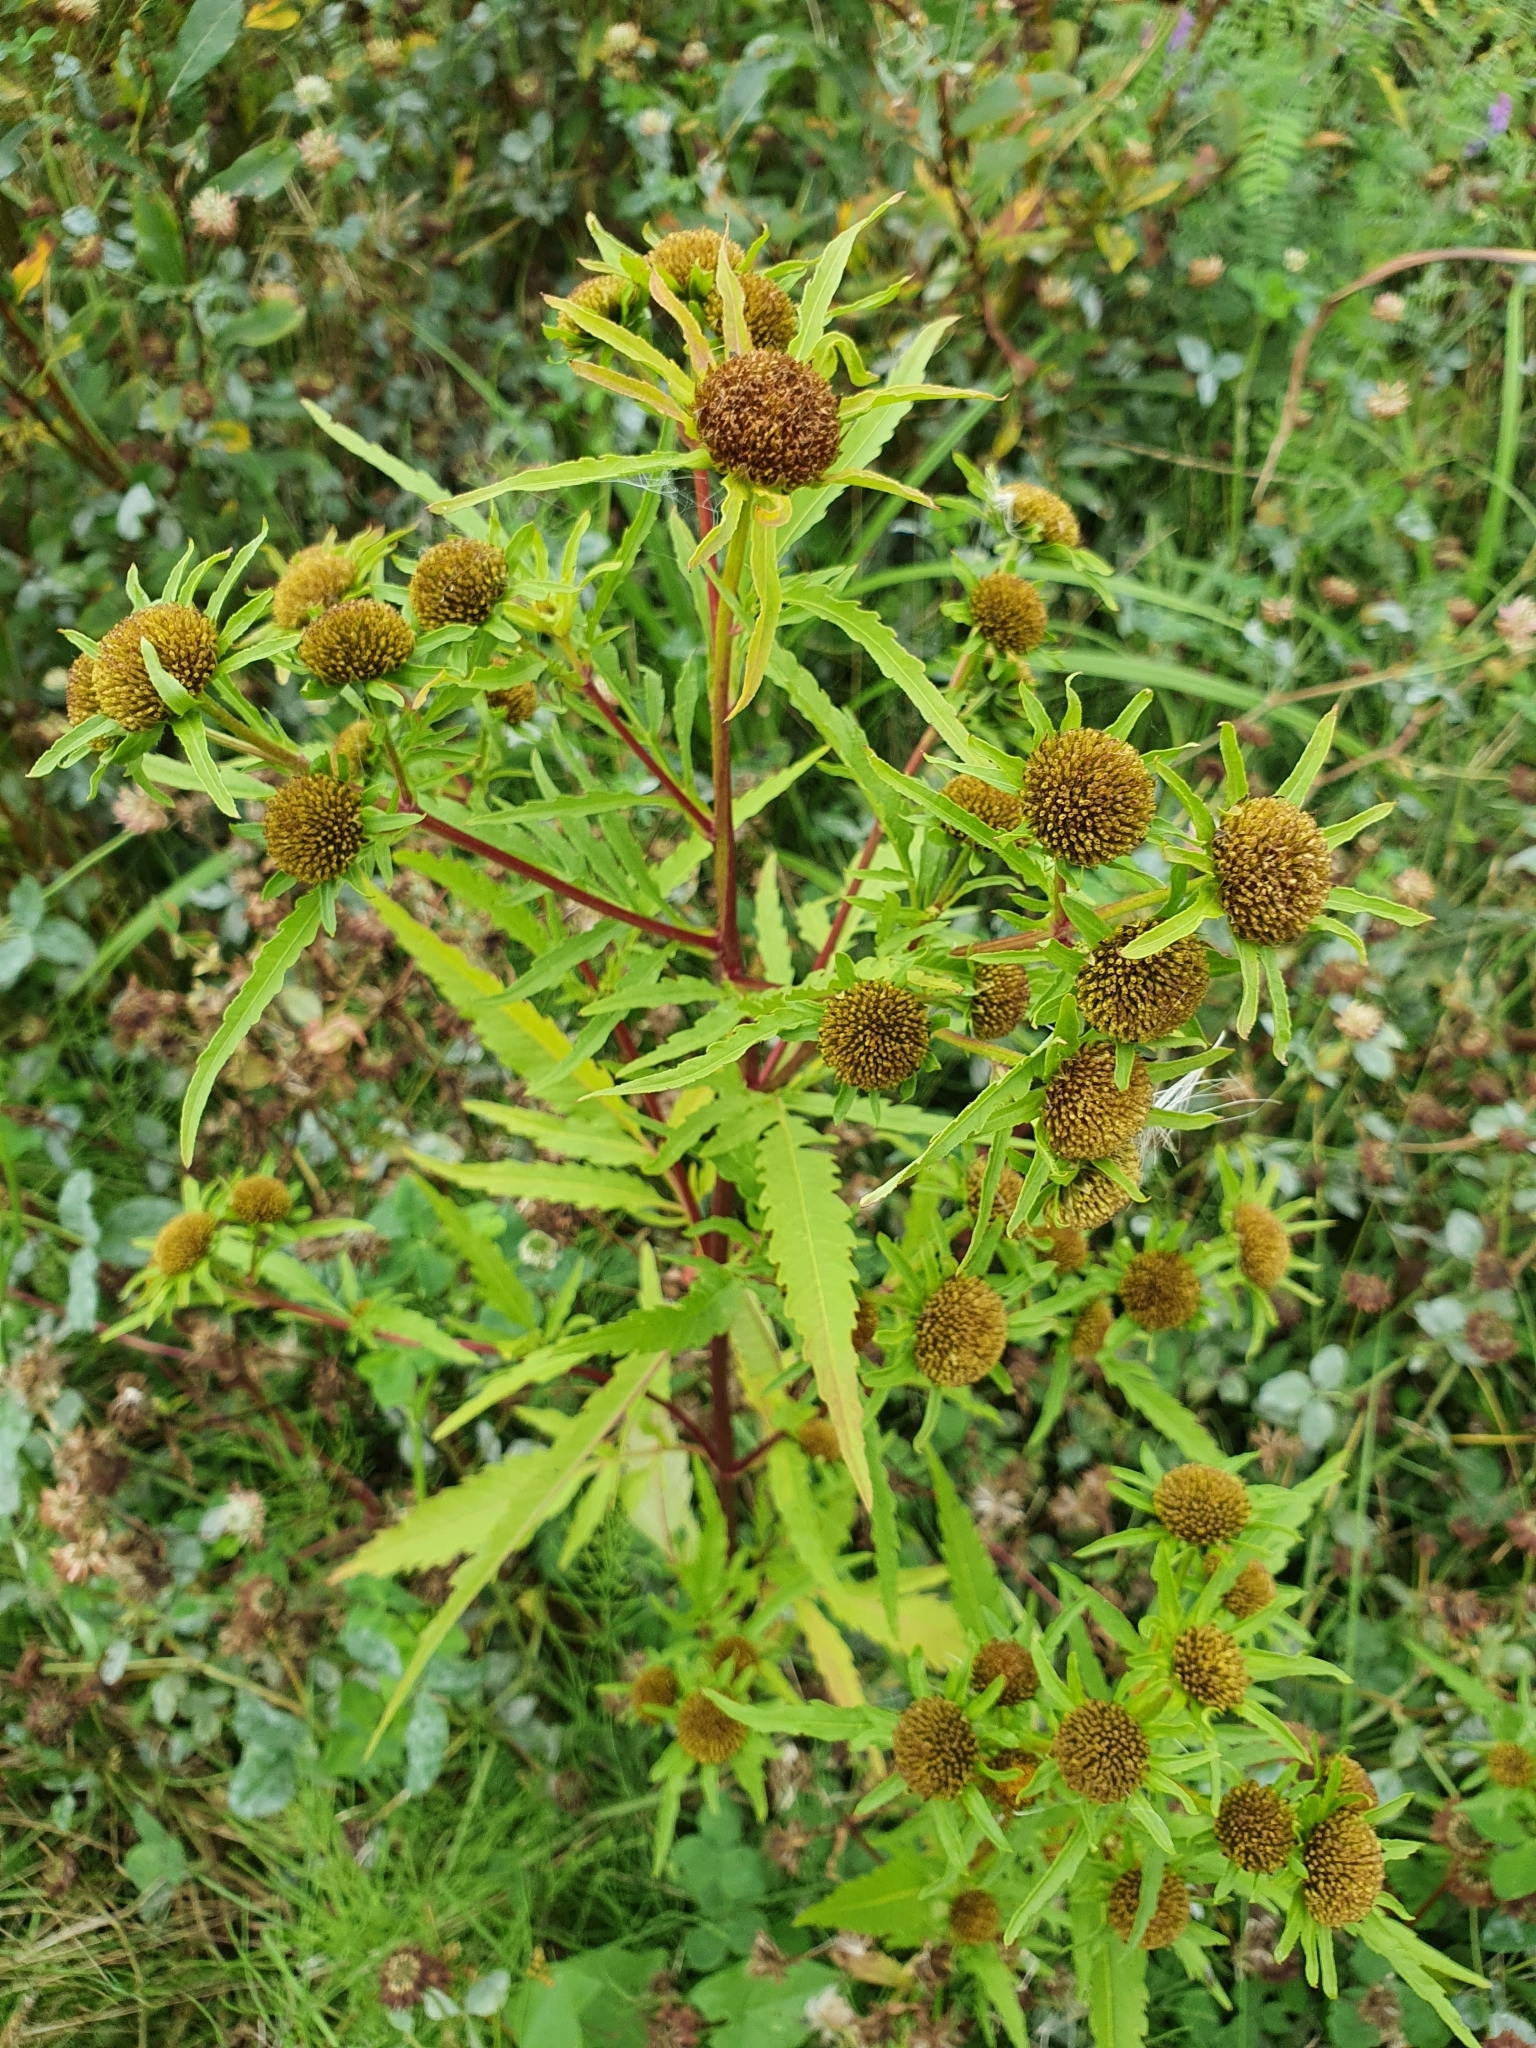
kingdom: Plantae
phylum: Tracheophyta
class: Magnoliopsida
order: Asterales
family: Asteraceae
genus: Bidens
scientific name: Bidens radiata
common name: Radiating bur-marigold
